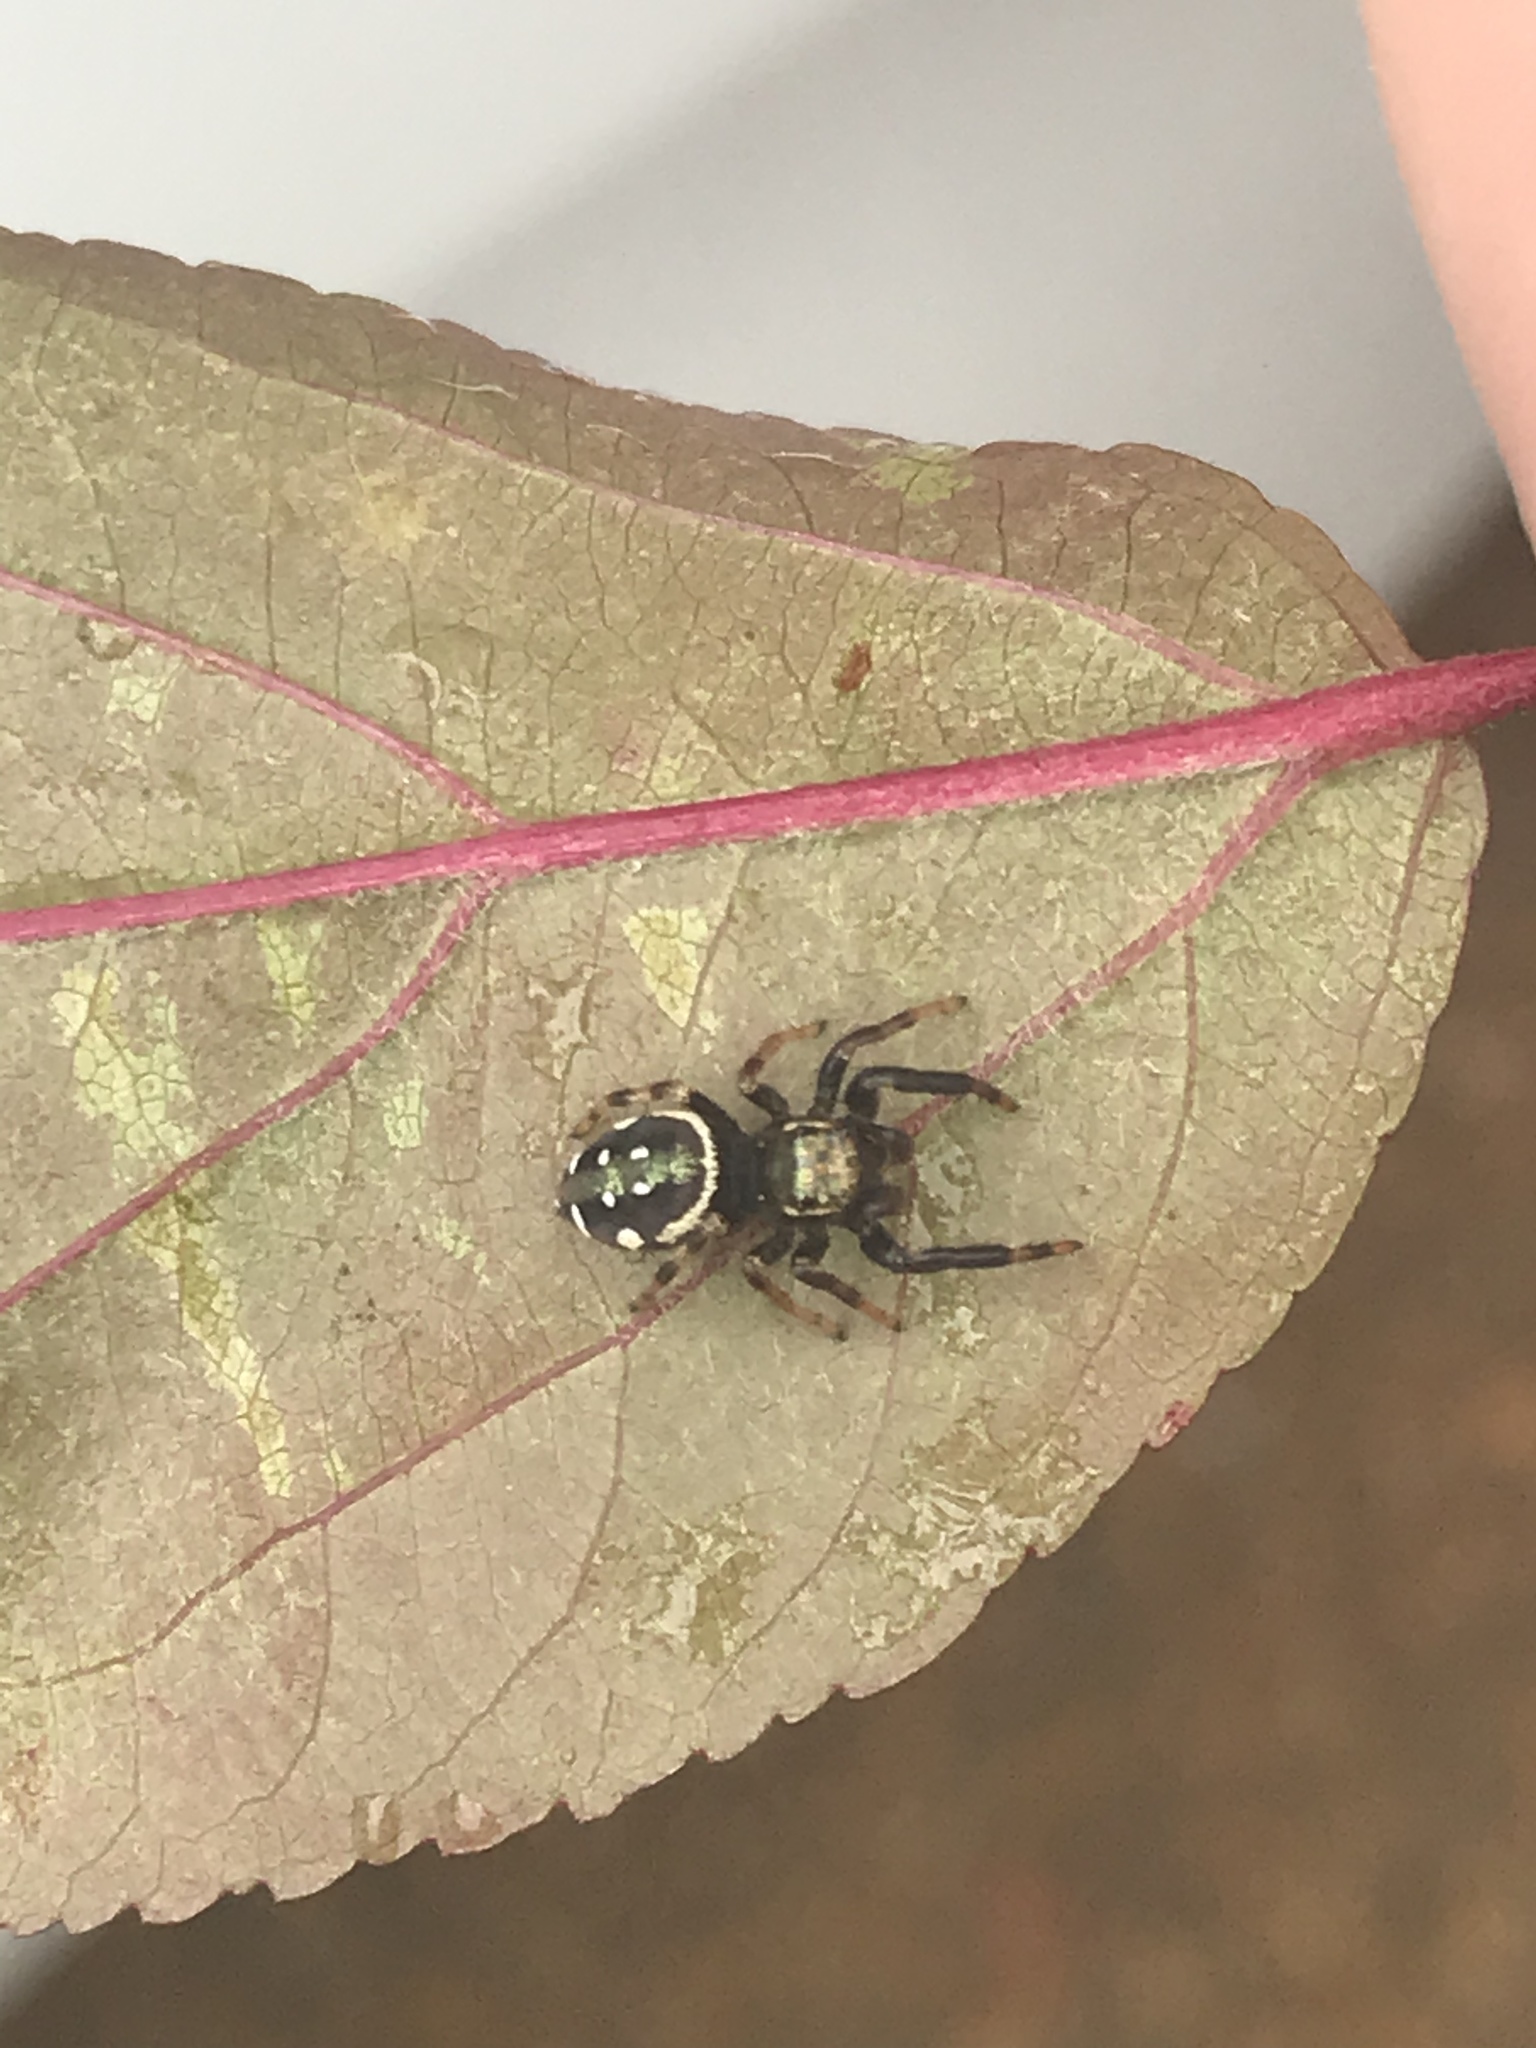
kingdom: Animalia
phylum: Arthropoda
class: Arachnida
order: Araneae
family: Salticidae
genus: Paraphidippus
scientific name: Paraphidippus aurantius
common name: Jumping spiders
